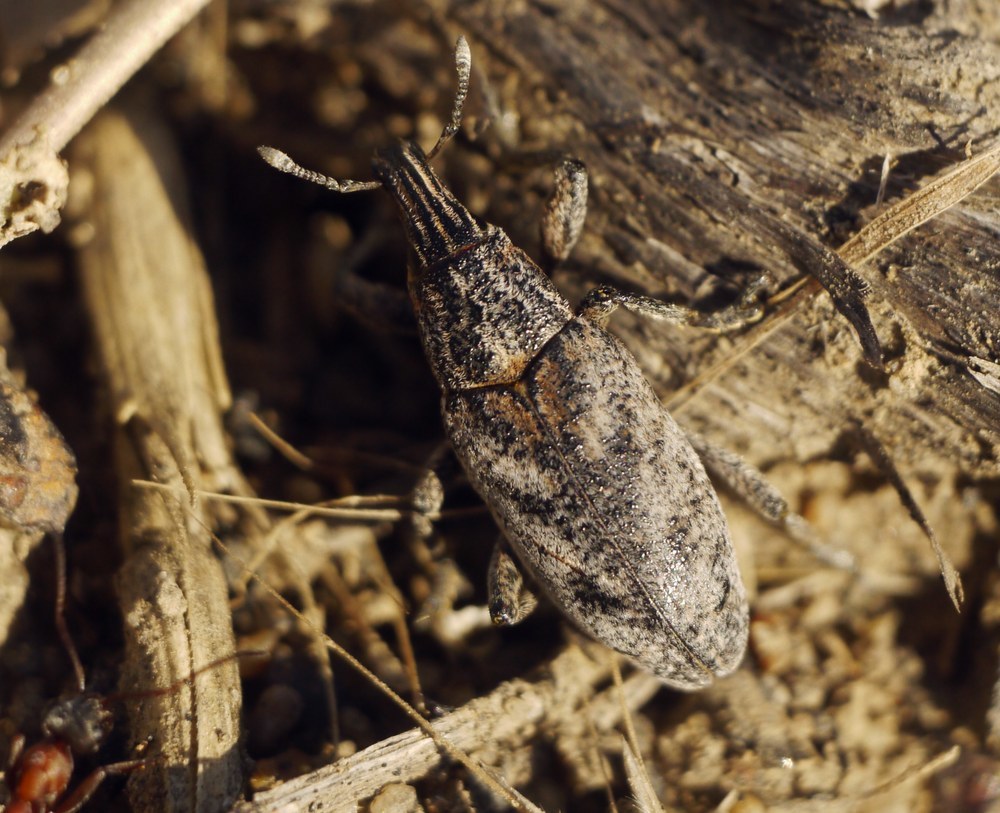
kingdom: Animalia
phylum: Arthropoda
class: Insecta
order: Coleoptera
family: Curculionidae
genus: Cleonis
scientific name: Cleonis pigra
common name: Large thistle weevil
